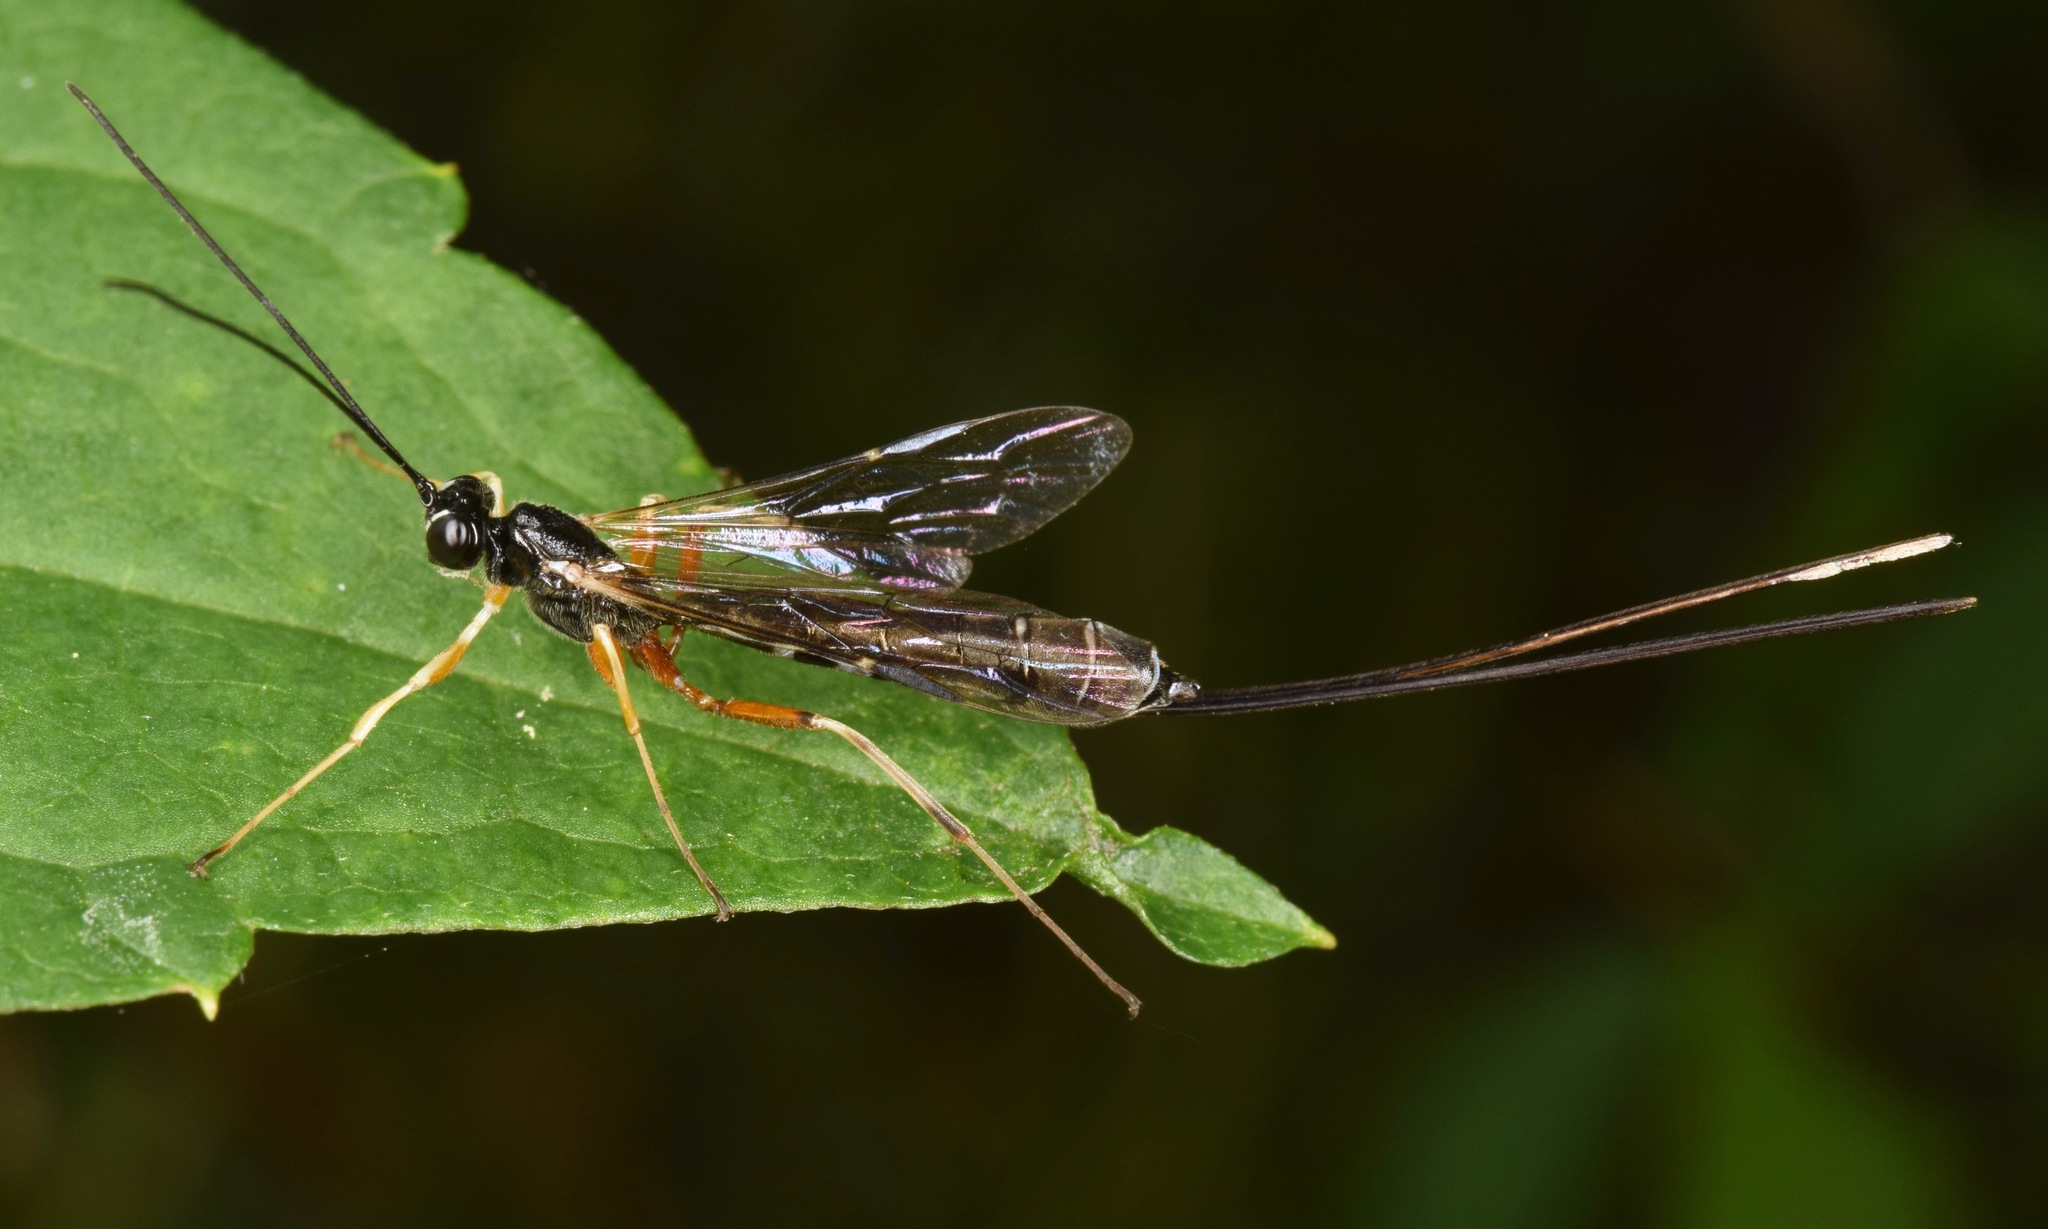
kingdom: Animalia
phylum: Arthropoda
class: Insecta
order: Hymenoptera
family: Ichneumonidae
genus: Rhyssella
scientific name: Rhyssella nitida
